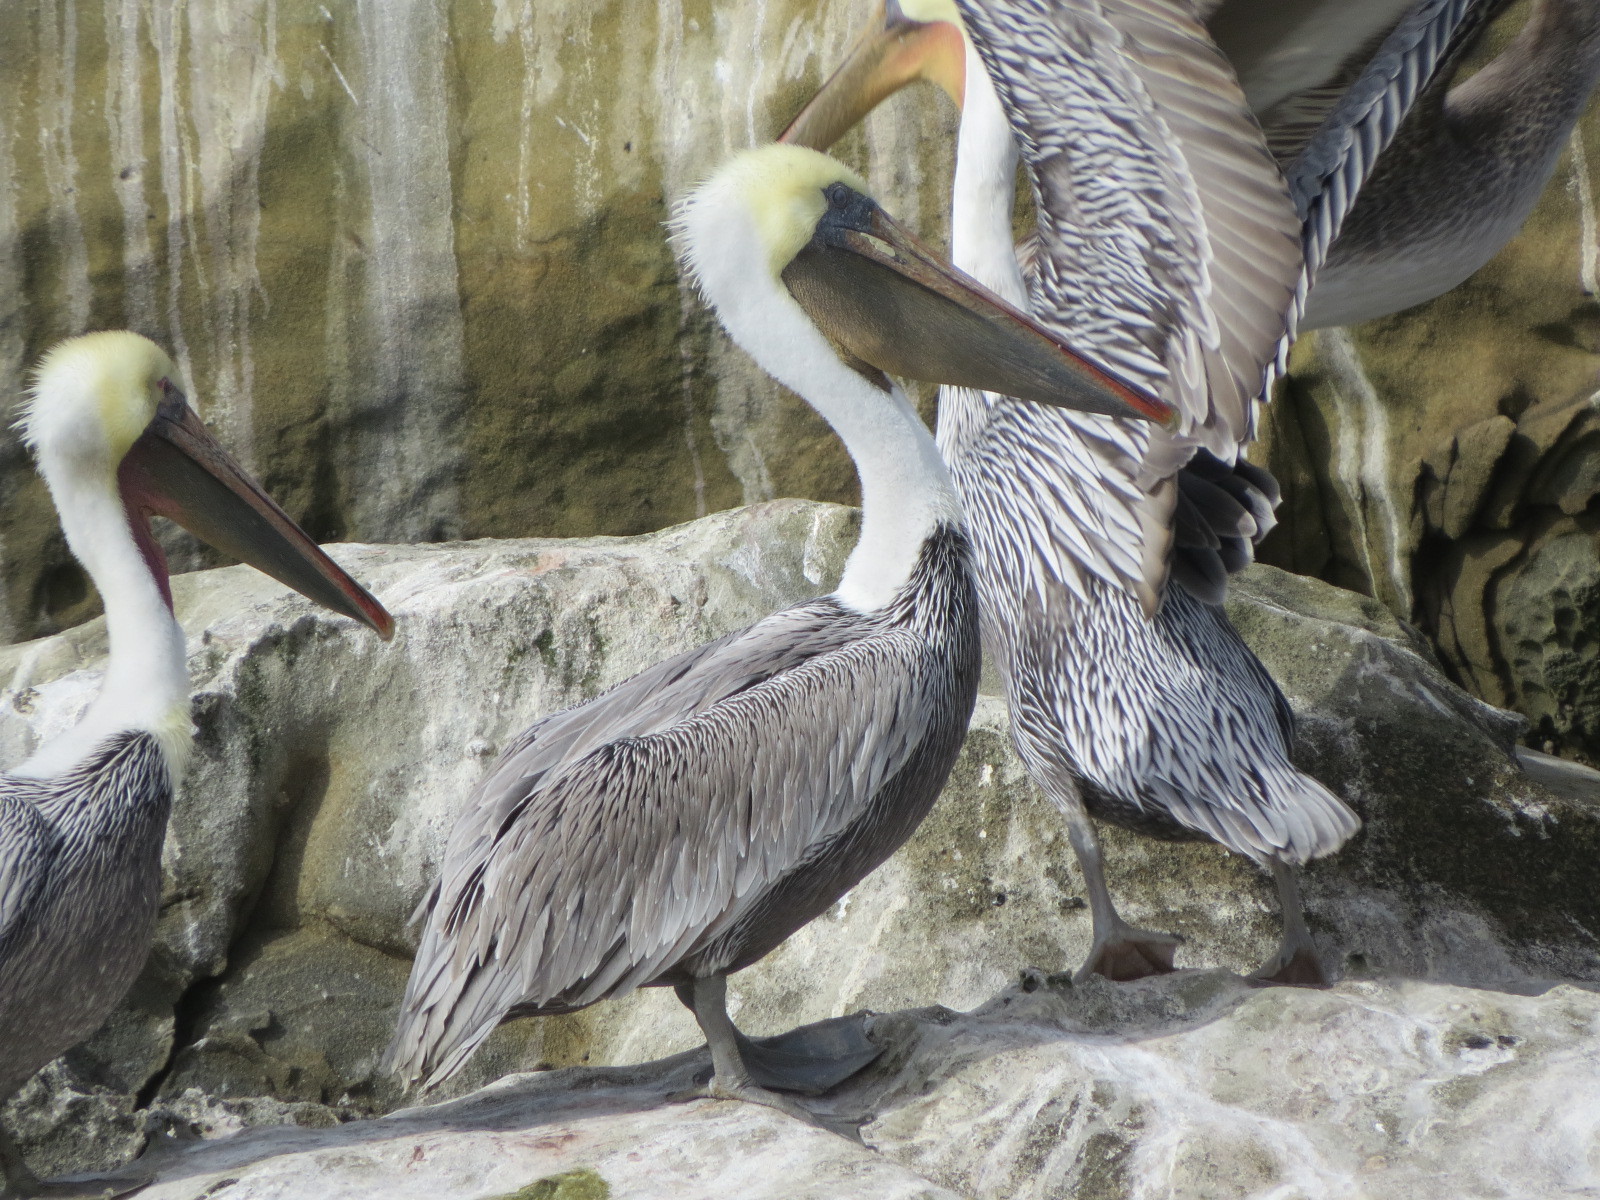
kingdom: Animalia
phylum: Chordata
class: Aves
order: Pelecaniformes
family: Pelecanidae
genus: Pelecanus
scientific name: Pelecanus occidentalis
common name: Brown pelican
